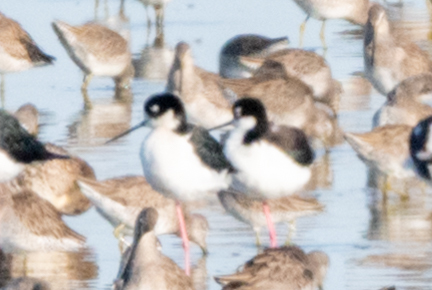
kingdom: Animalia
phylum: Chordata
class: Aves
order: Charadriiformes
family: Recurvirostridae
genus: Himantopus
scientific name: Himantopus mexicanus
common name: Black-necked stilt
